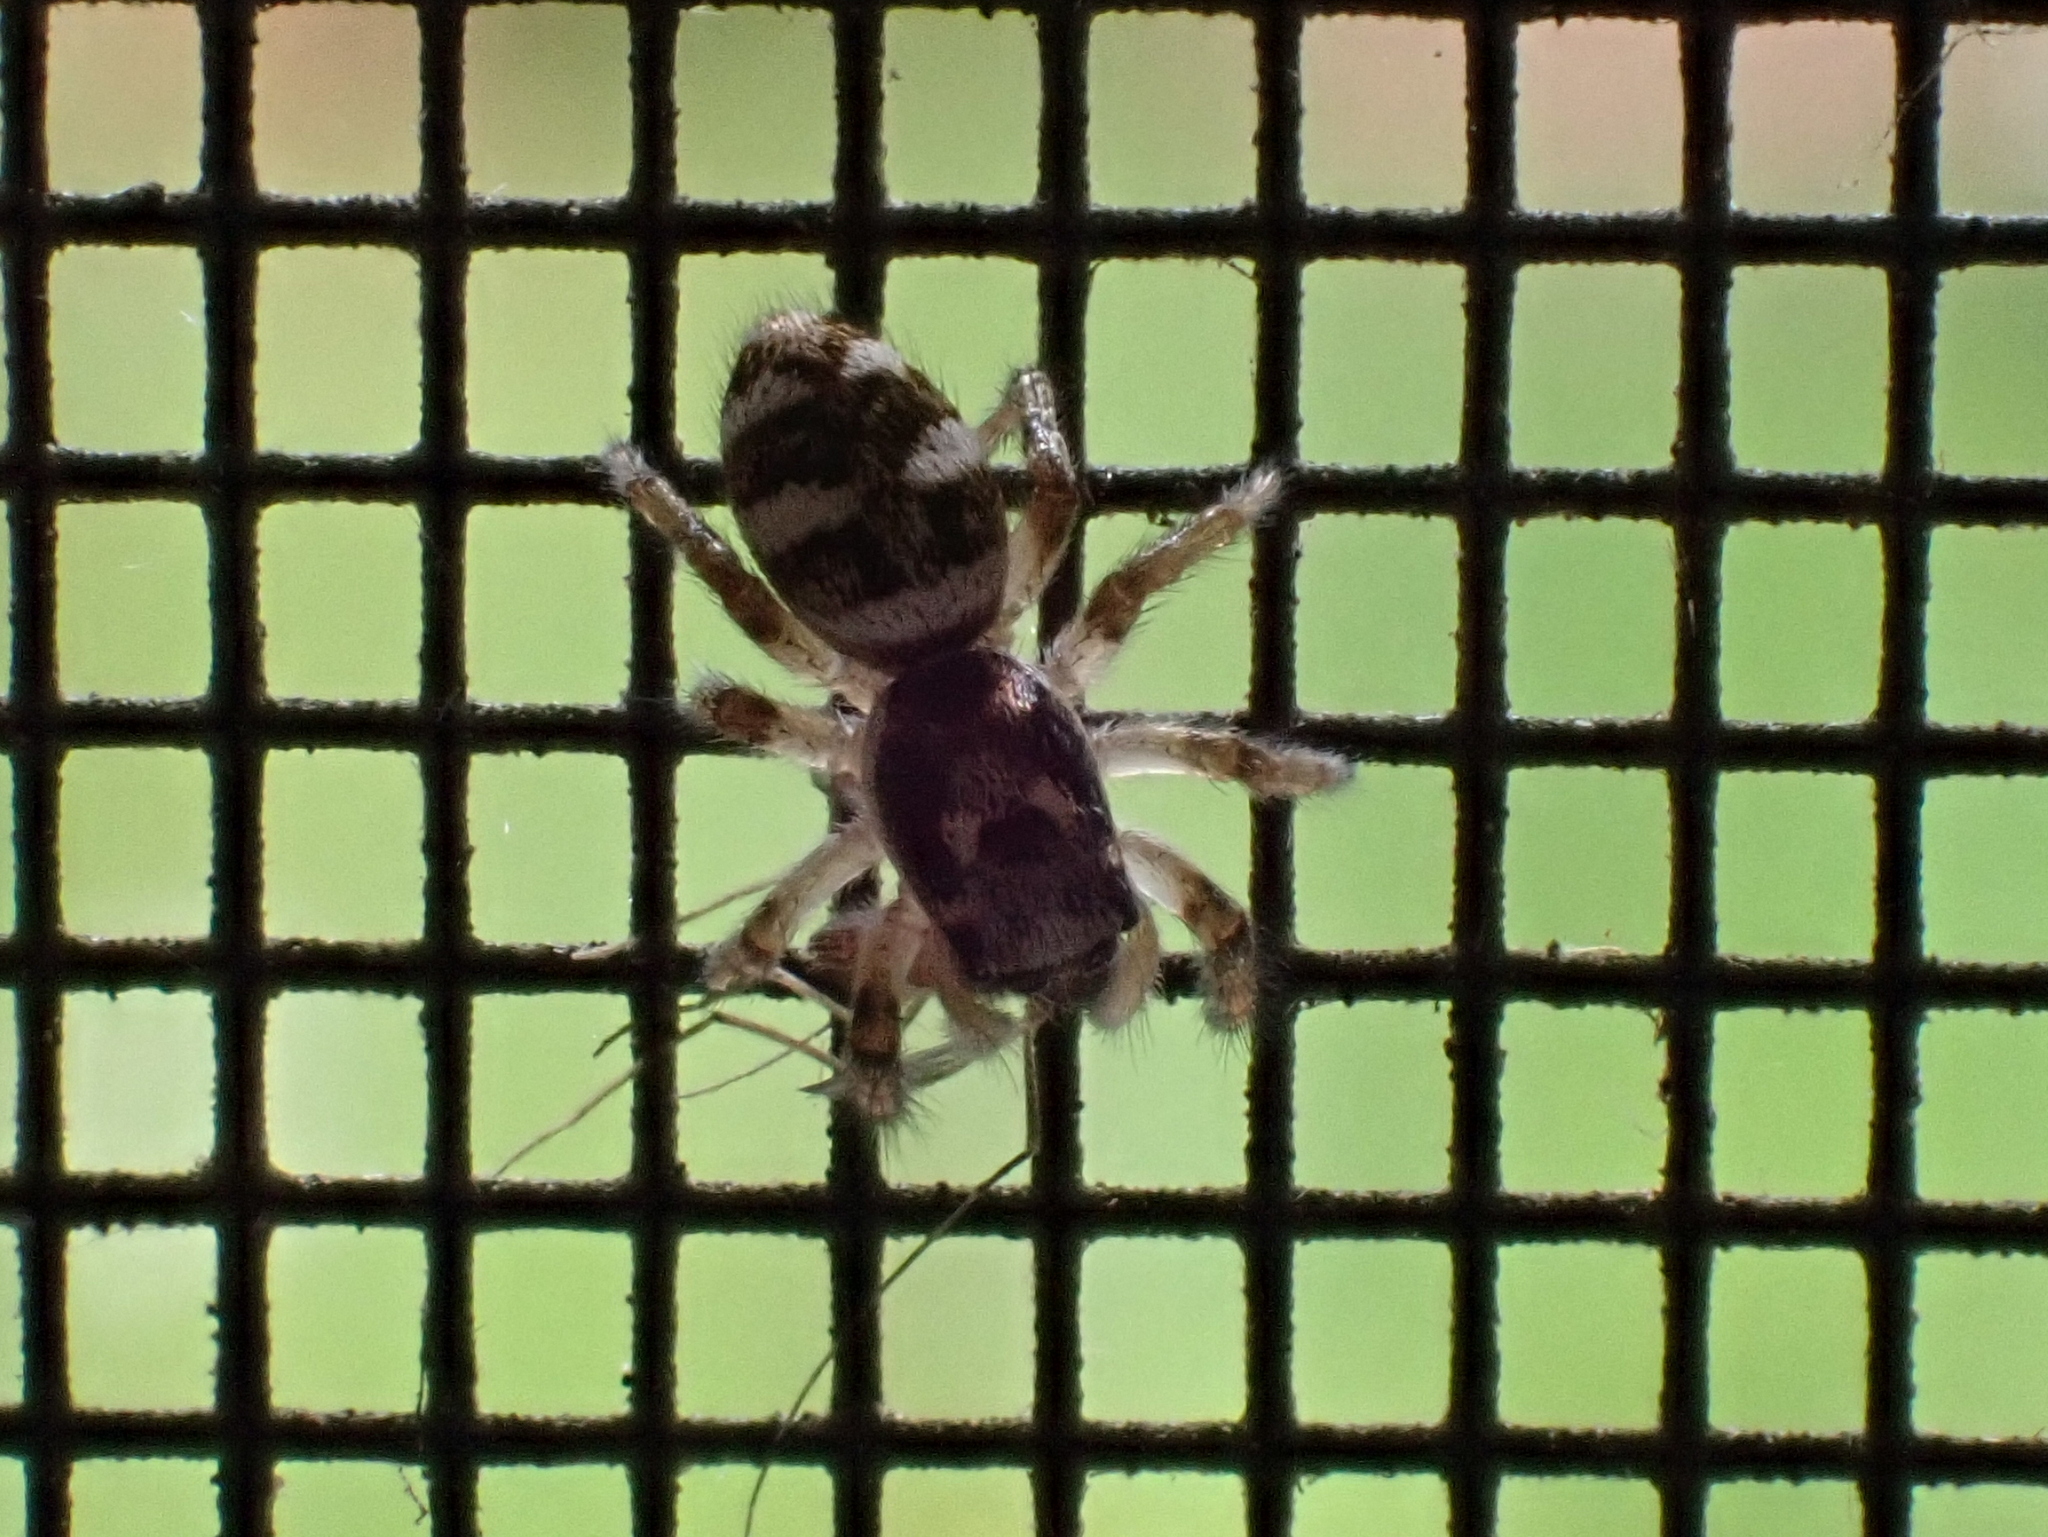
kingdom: Animalia
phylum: Arthropoda
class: Arachnida
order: Araneae
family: Salticidae
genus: Salticus
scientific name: Salticus scenicus
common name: Zebra jumper
